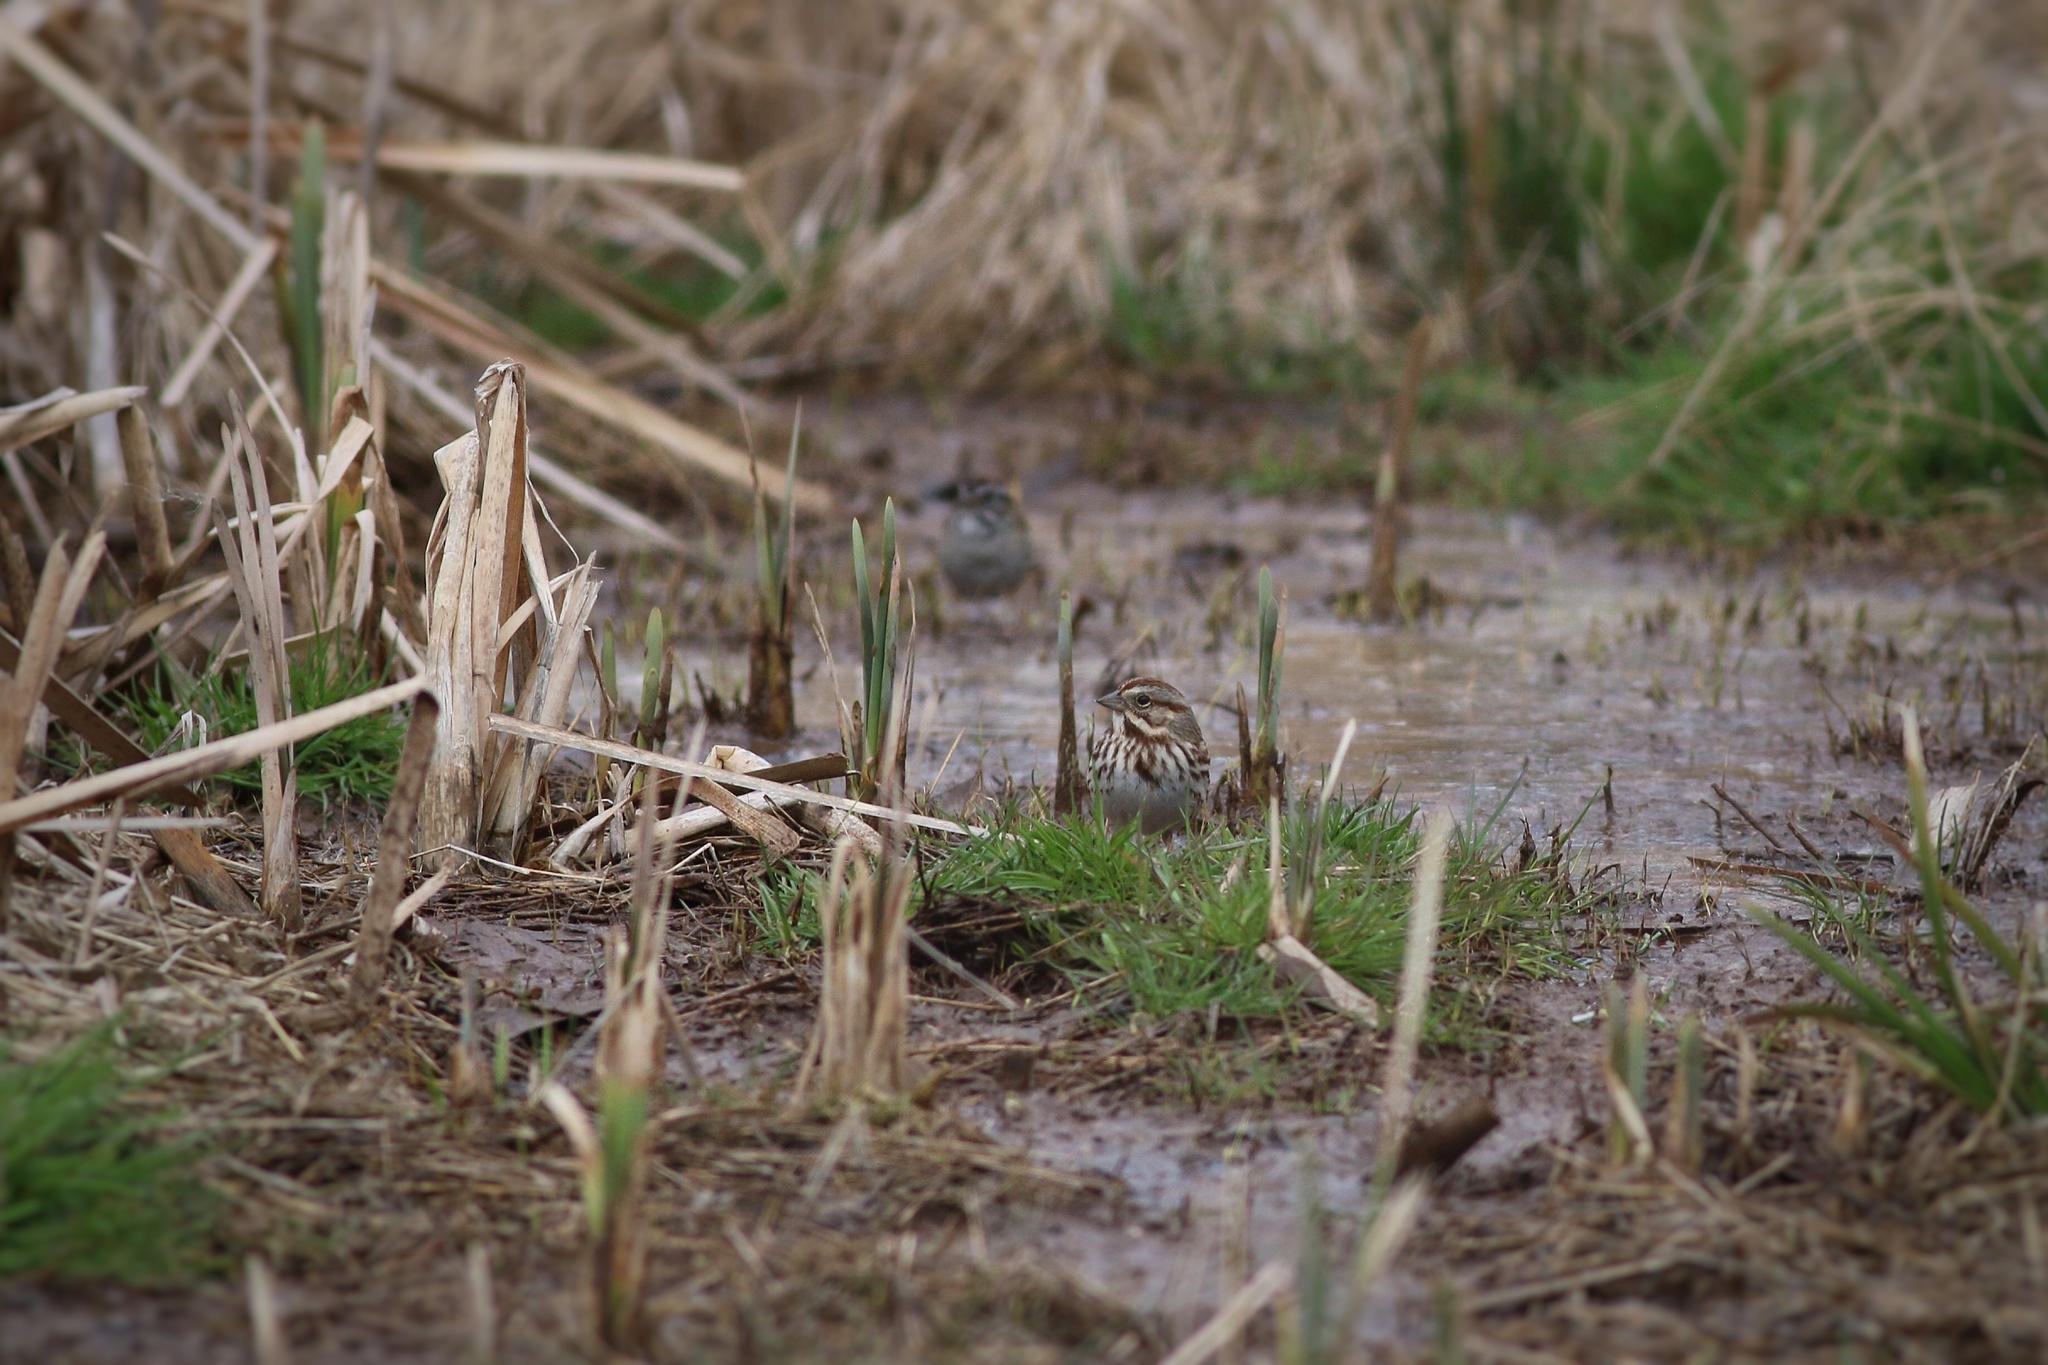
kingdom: Animalia
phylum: Chordata
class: Aves
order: Passeriformes
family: Passerellidae
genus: Melospiza
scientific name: Melospiza melodia
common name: Song sparrow
